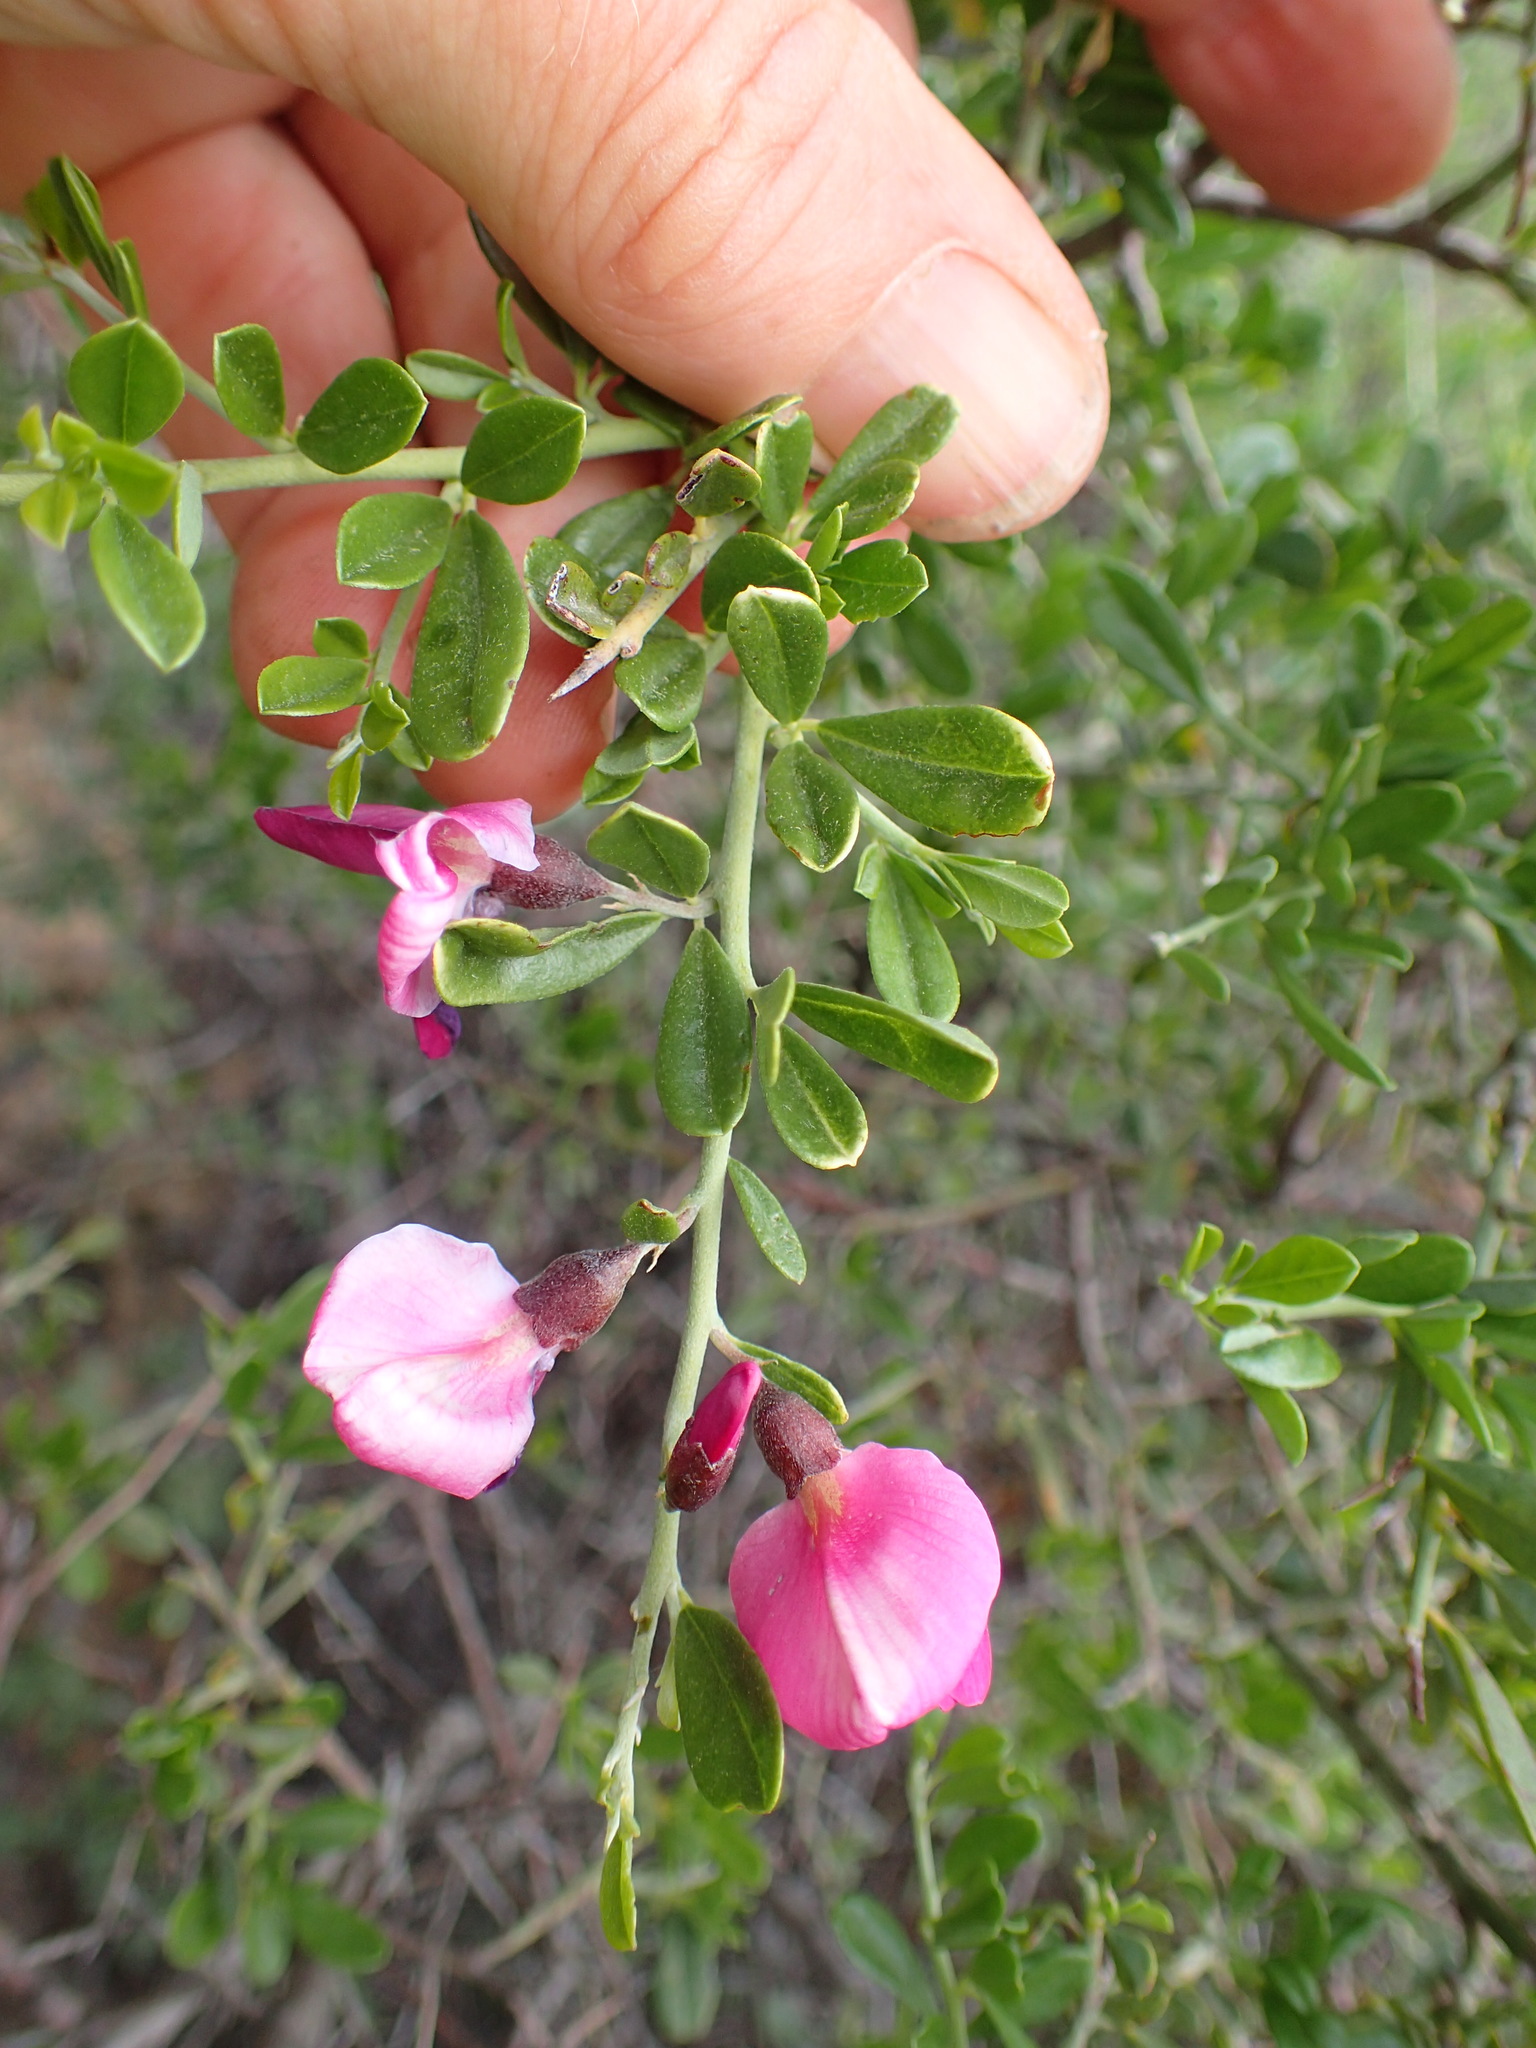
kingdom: Plantae
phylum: Tracheophyta
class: Magnoliopsida
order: Fabales
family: Fabaceae
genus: Pickeringia
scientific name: Pickeringia montana
